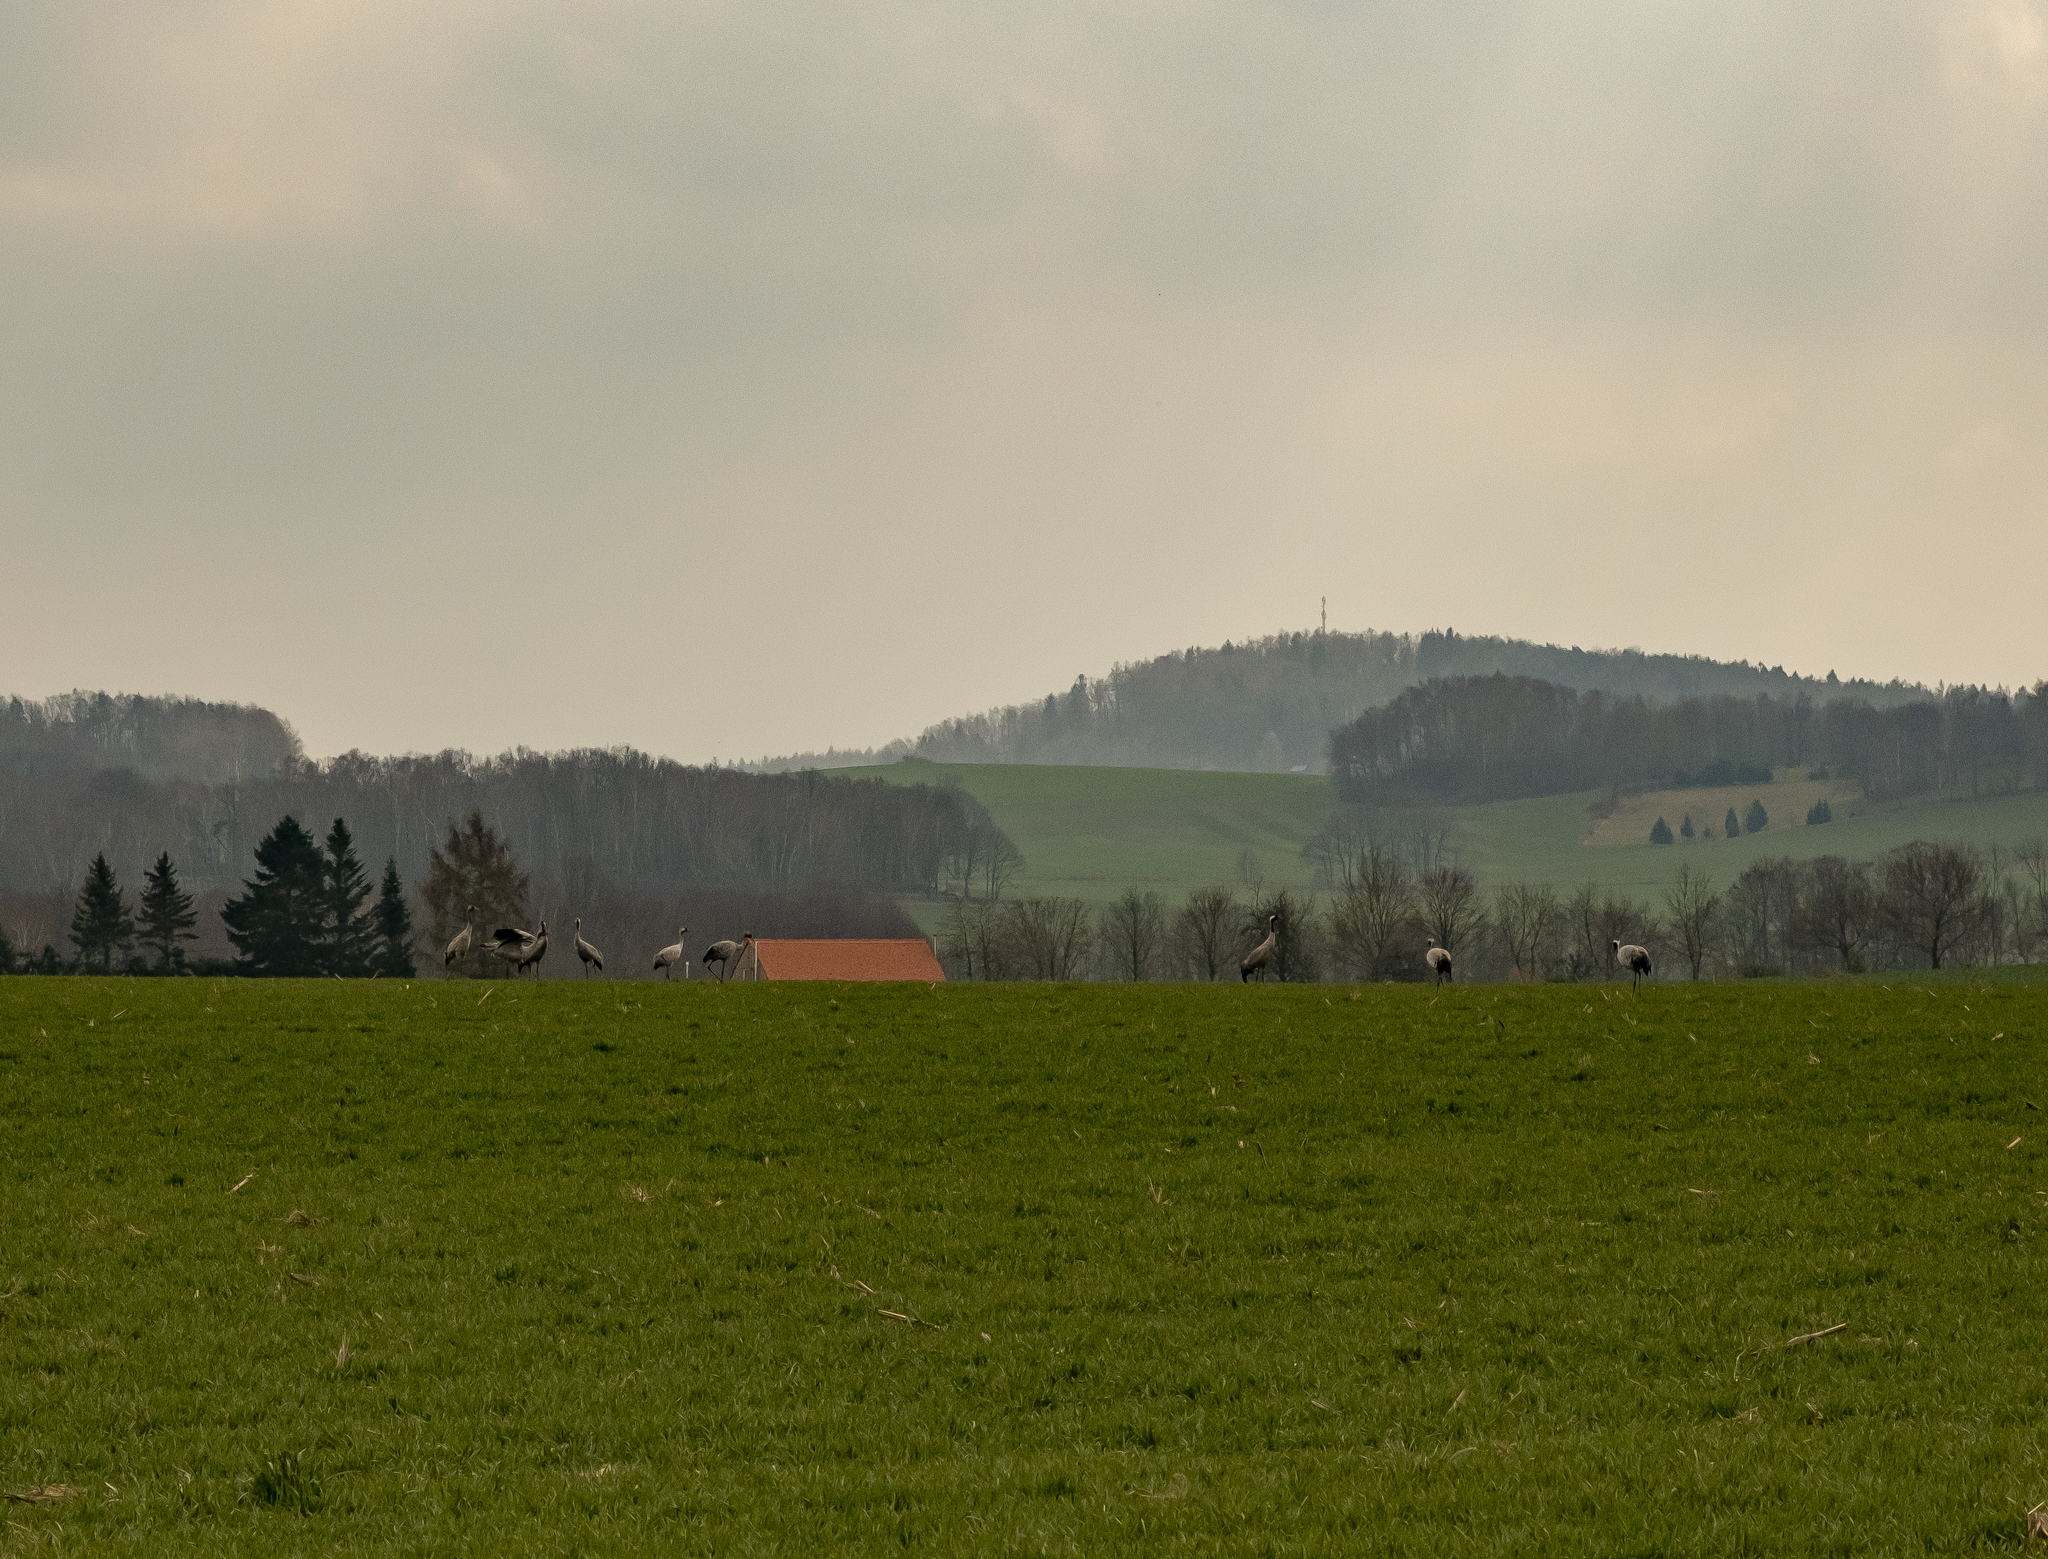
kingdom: Animalia
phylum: Chordata
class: Aves
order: Gruiformes
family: Gruidae
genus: Grus
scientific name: Grus grus
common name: Common crane
